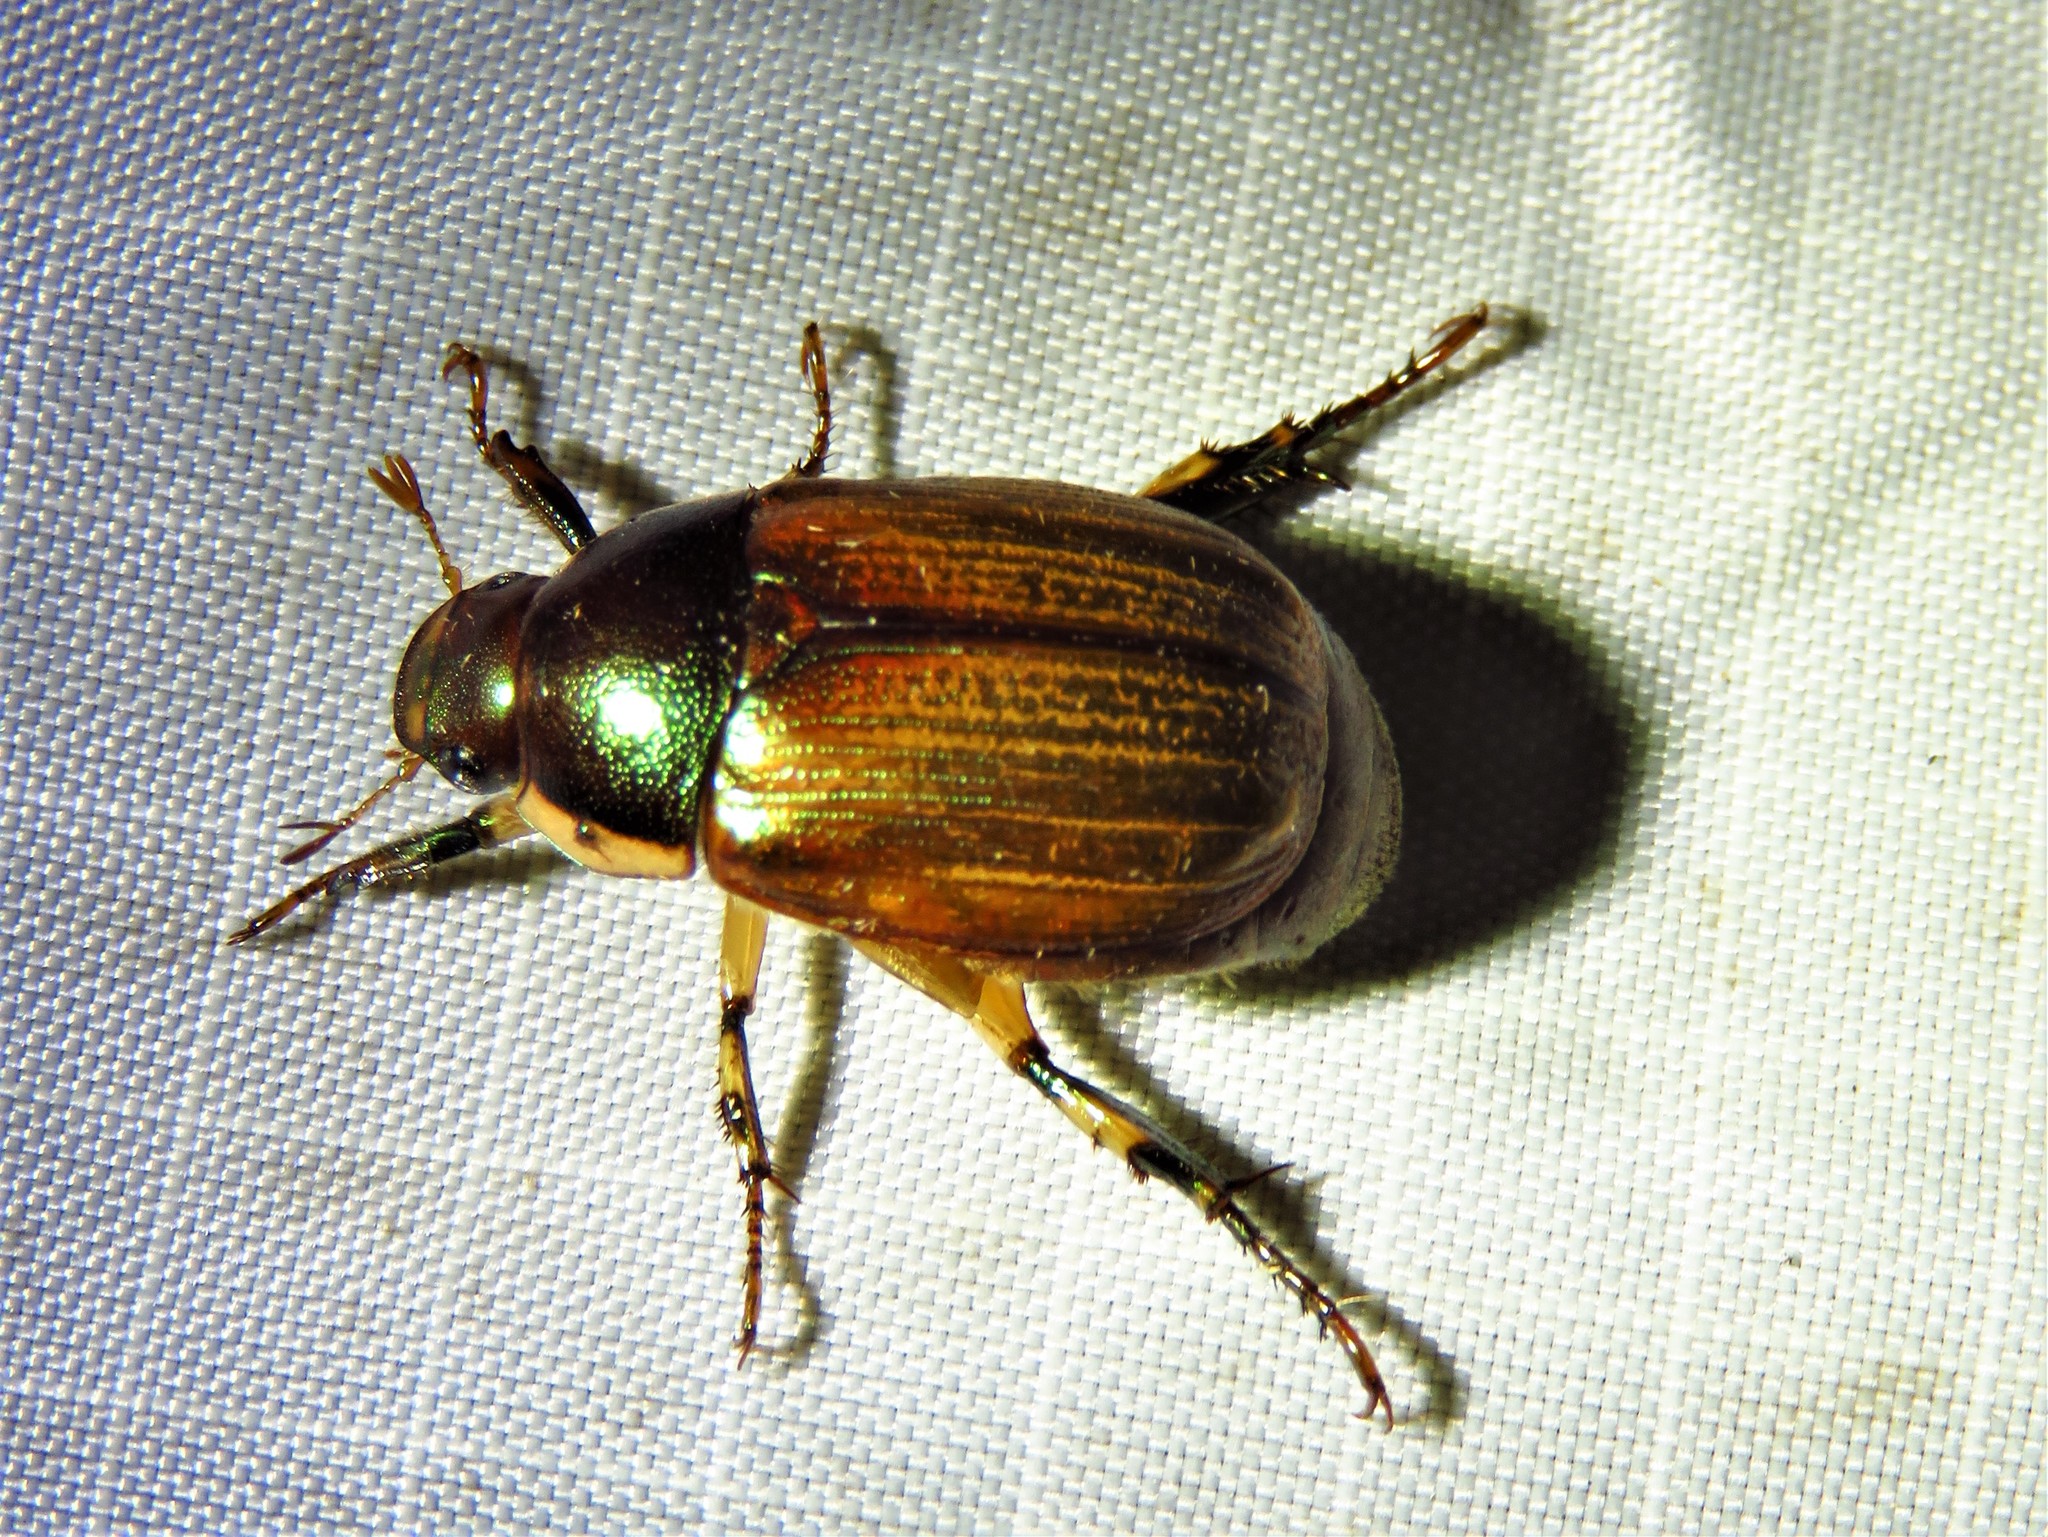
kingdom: Animalia
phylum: Arthropoda
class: Insecta
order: Coleoptera
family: Scarabaeidae
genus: Callistethus
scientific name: Callistethus marginatus
